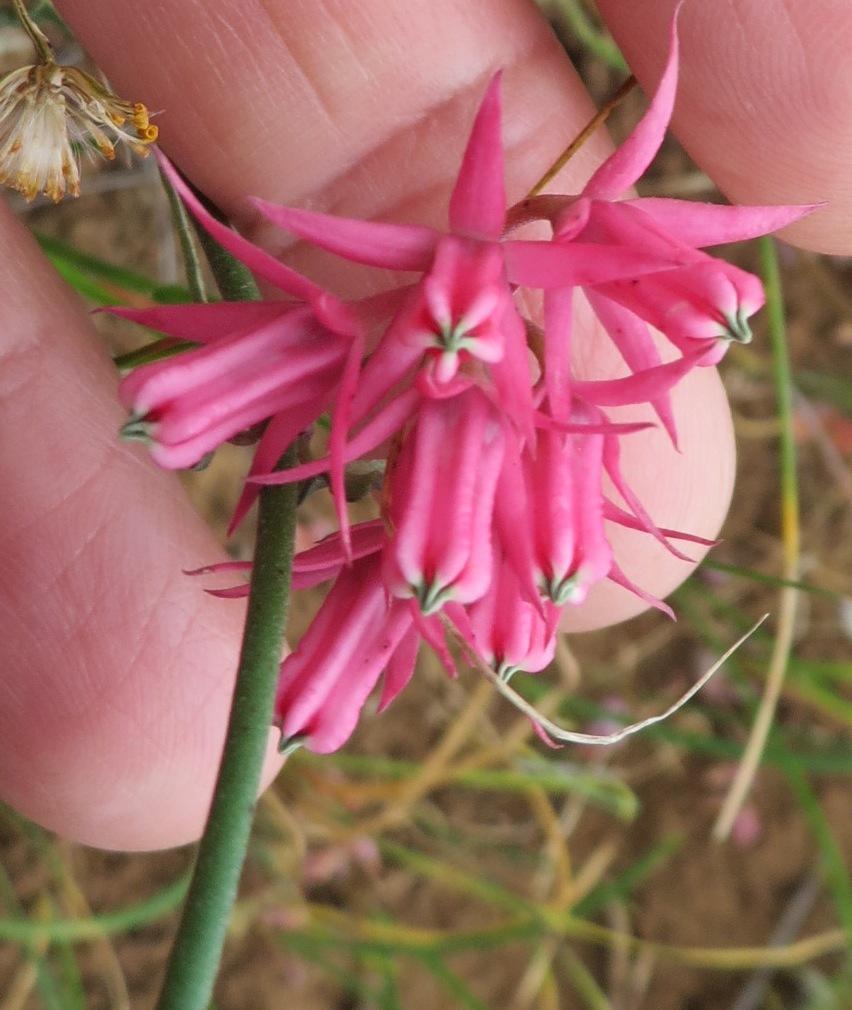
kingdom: Plantae
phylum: Tracheophyta
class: Magnoliopsida
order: Gentianales
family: Apocynaceae
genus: Microloma
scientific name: Microloma sagittatum
